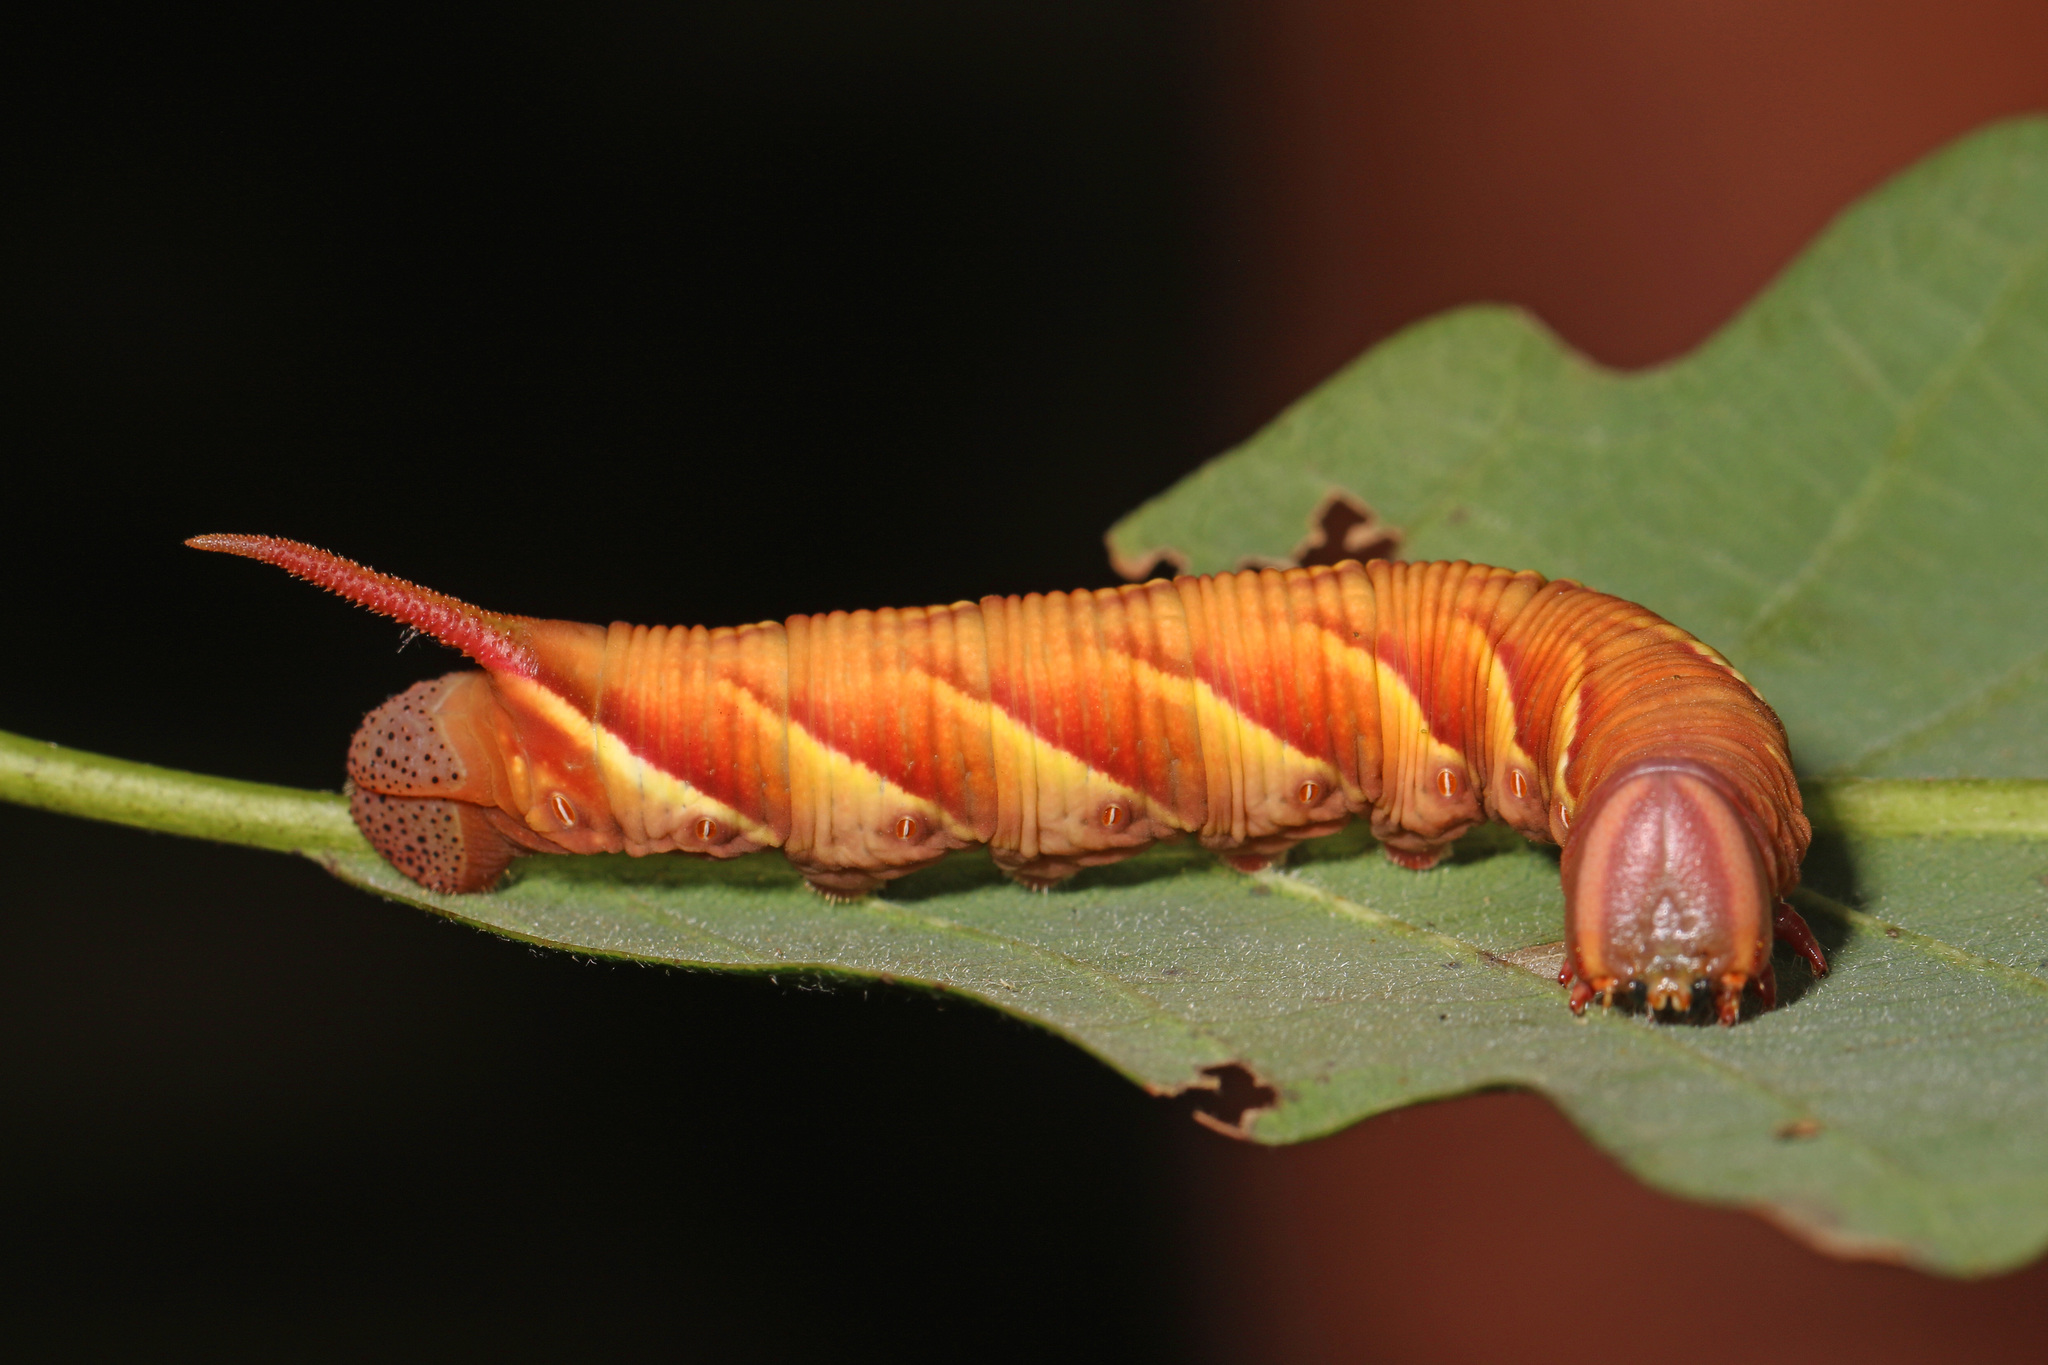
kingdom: Animalia
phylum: Arthropoda
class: Insecta
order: Lepidoptera
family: Sphingidae
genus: Ceratomia
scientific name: Ceratomia undulosa
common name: Waved sphinx
